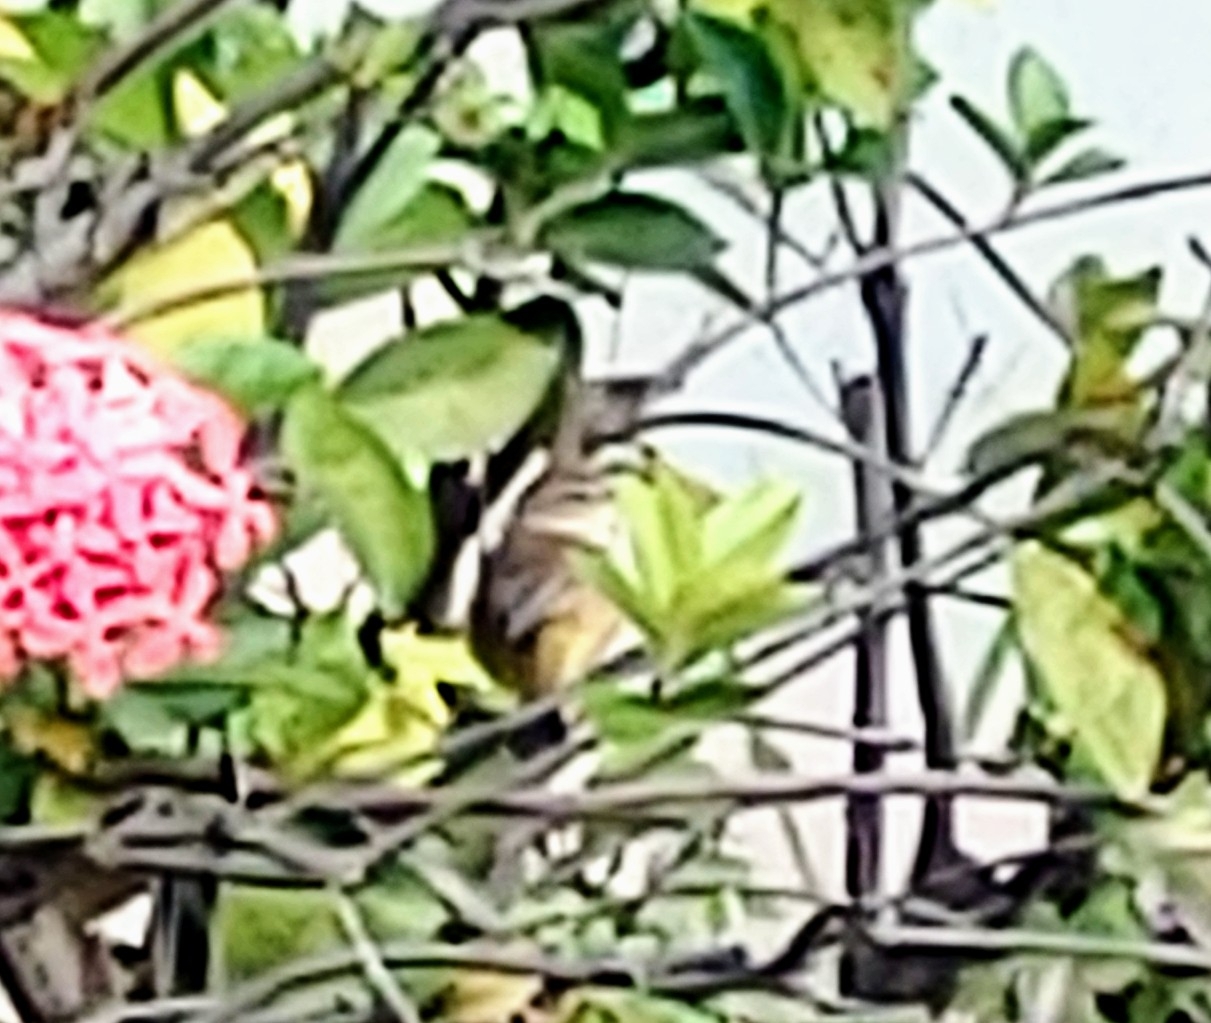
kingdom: Animalia
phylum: Chordata
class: Aves
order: Passeriformes
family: Parulidae
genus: Setophaga
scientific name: Setophaga palmarum
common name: Palm warbler
